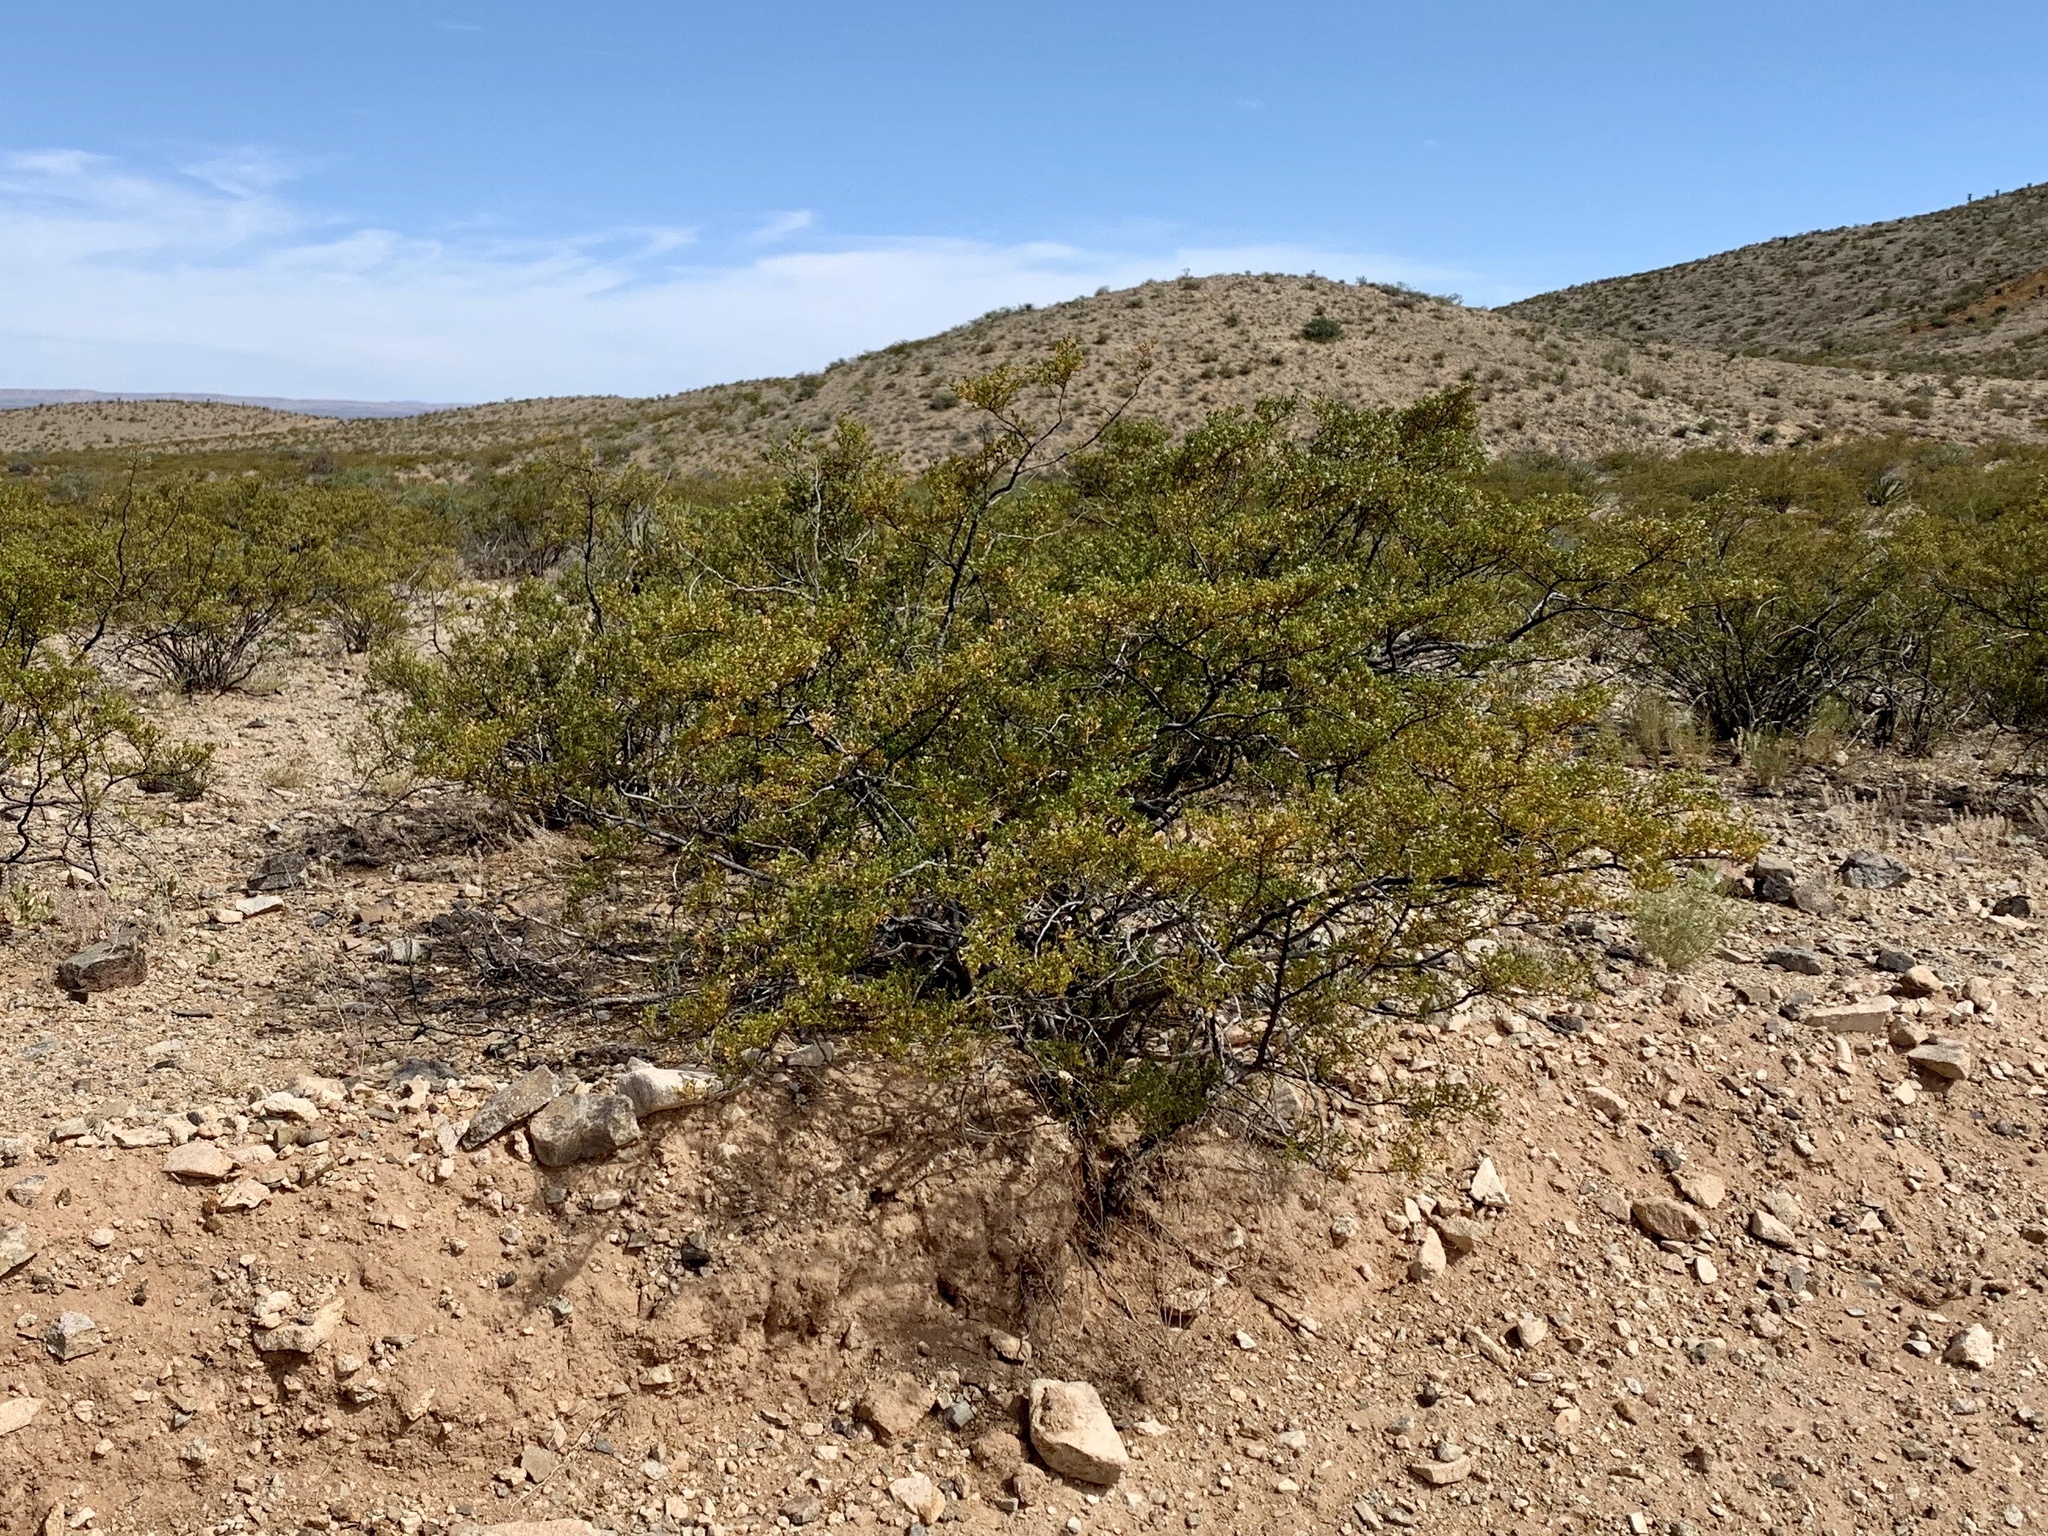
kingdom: Plantae
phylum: Tracheophyta
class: Magnoliopsida
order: Zygophyllales
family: Zygophyllaceae
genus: Larrea
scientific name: Larrea tridentata
